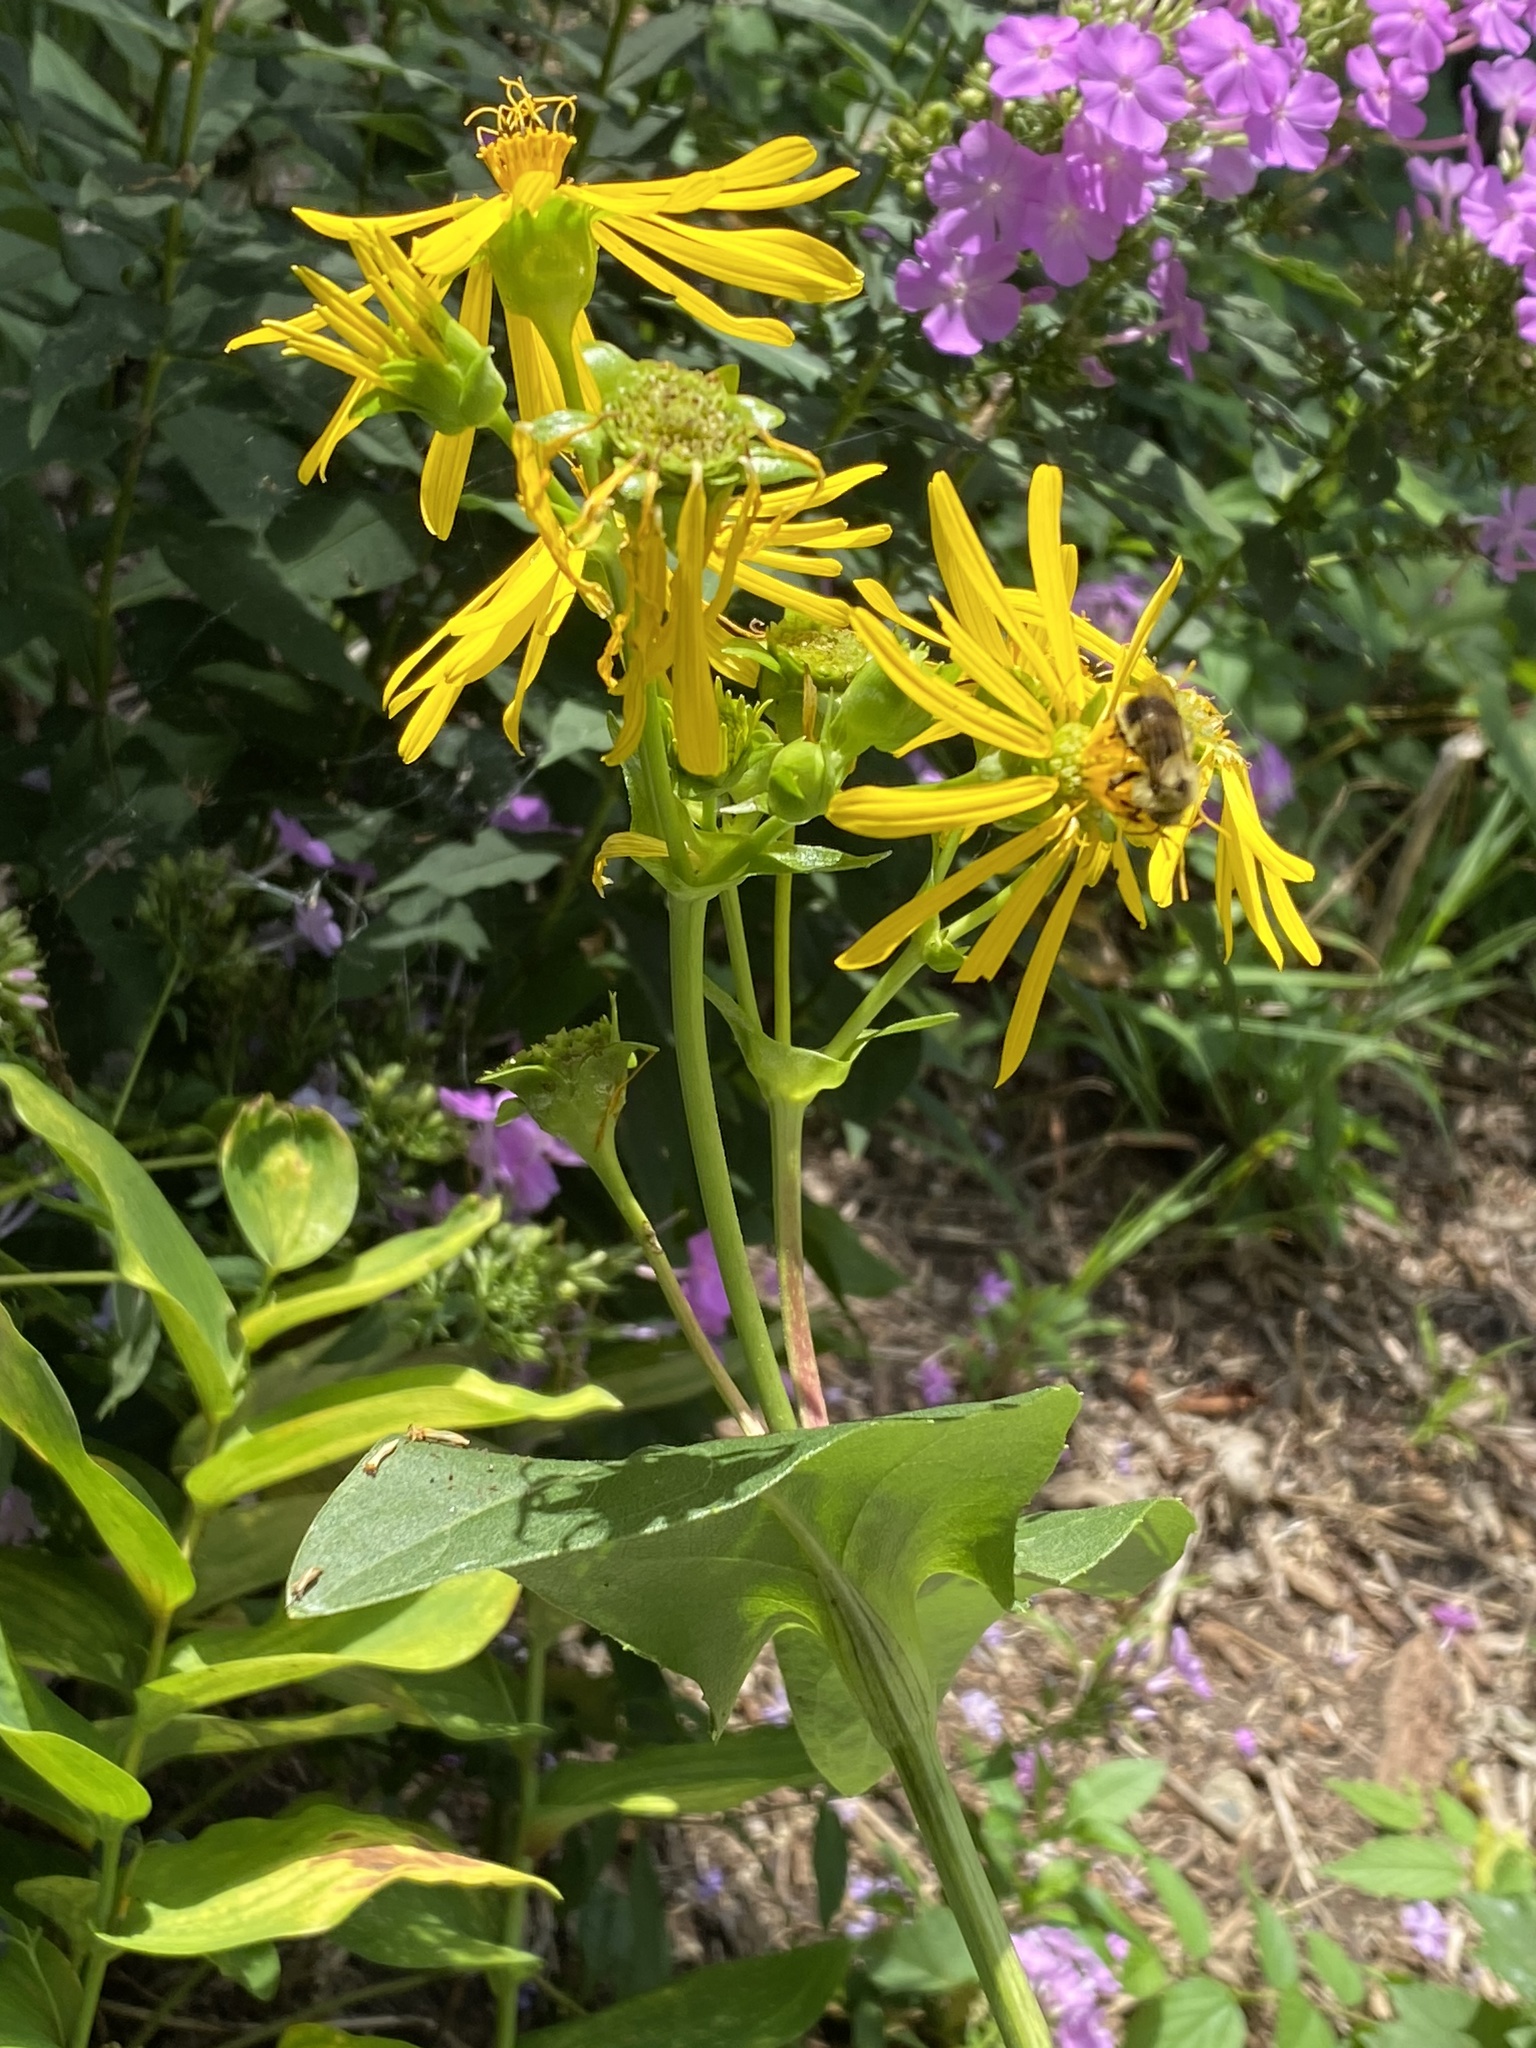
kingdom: Plantae
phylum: Tracheophyta
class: Magnoliopsida
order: Asterales
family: Asteraceae
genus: Silphium
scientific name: Silphium perfoliatum
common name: Cup-plant
